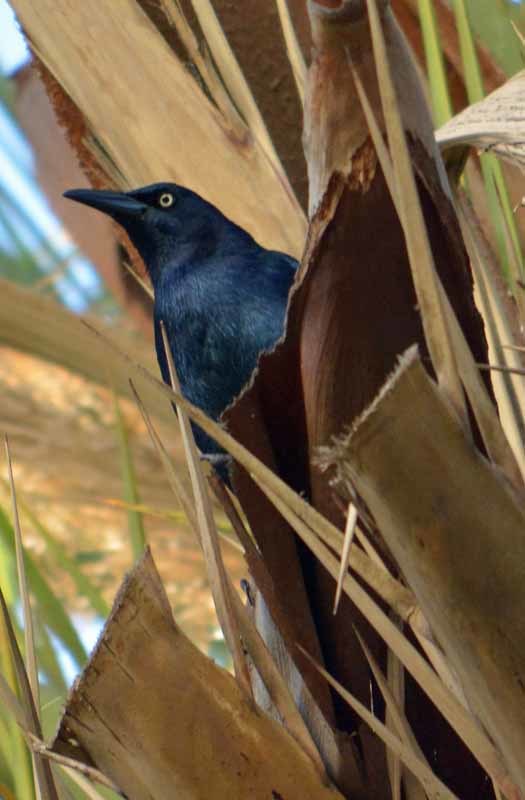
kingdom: Animalia
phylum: Chordata
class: Aves
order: Passeriformes
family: Icteridae
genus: Quiscalus
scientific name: Quiscalus mexicanus
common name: Great-tailed grackle
